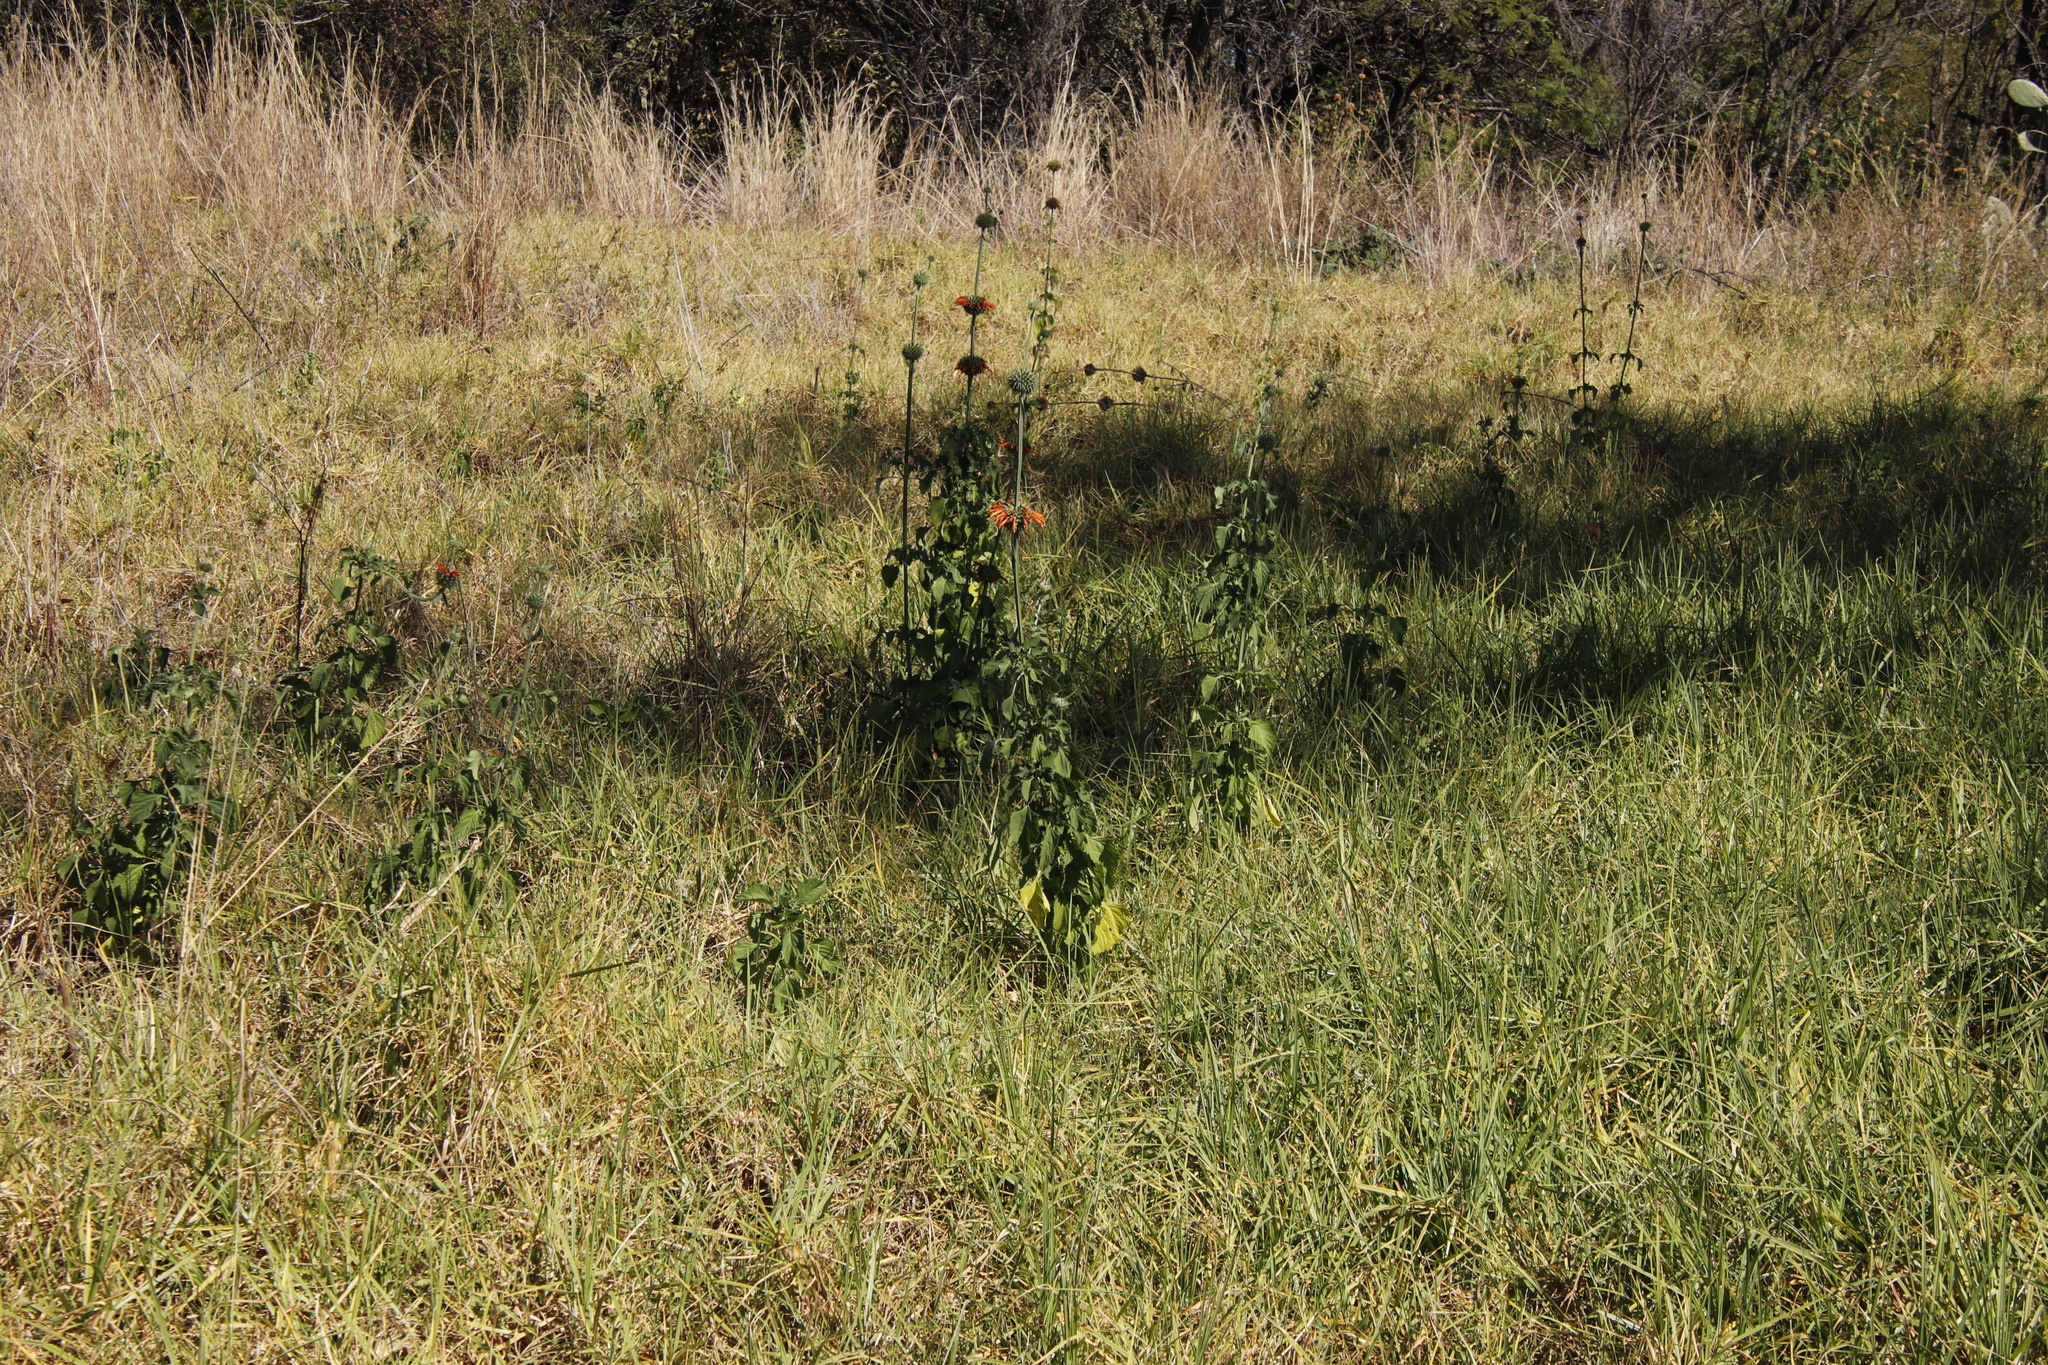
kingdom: Plantae
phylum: Tracheophyta
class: Magnoliopsida
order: Lamiales
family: Lamiaceae
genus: Leonotis
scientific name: Leonotis nepetifolia
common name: Christmas candlestick
